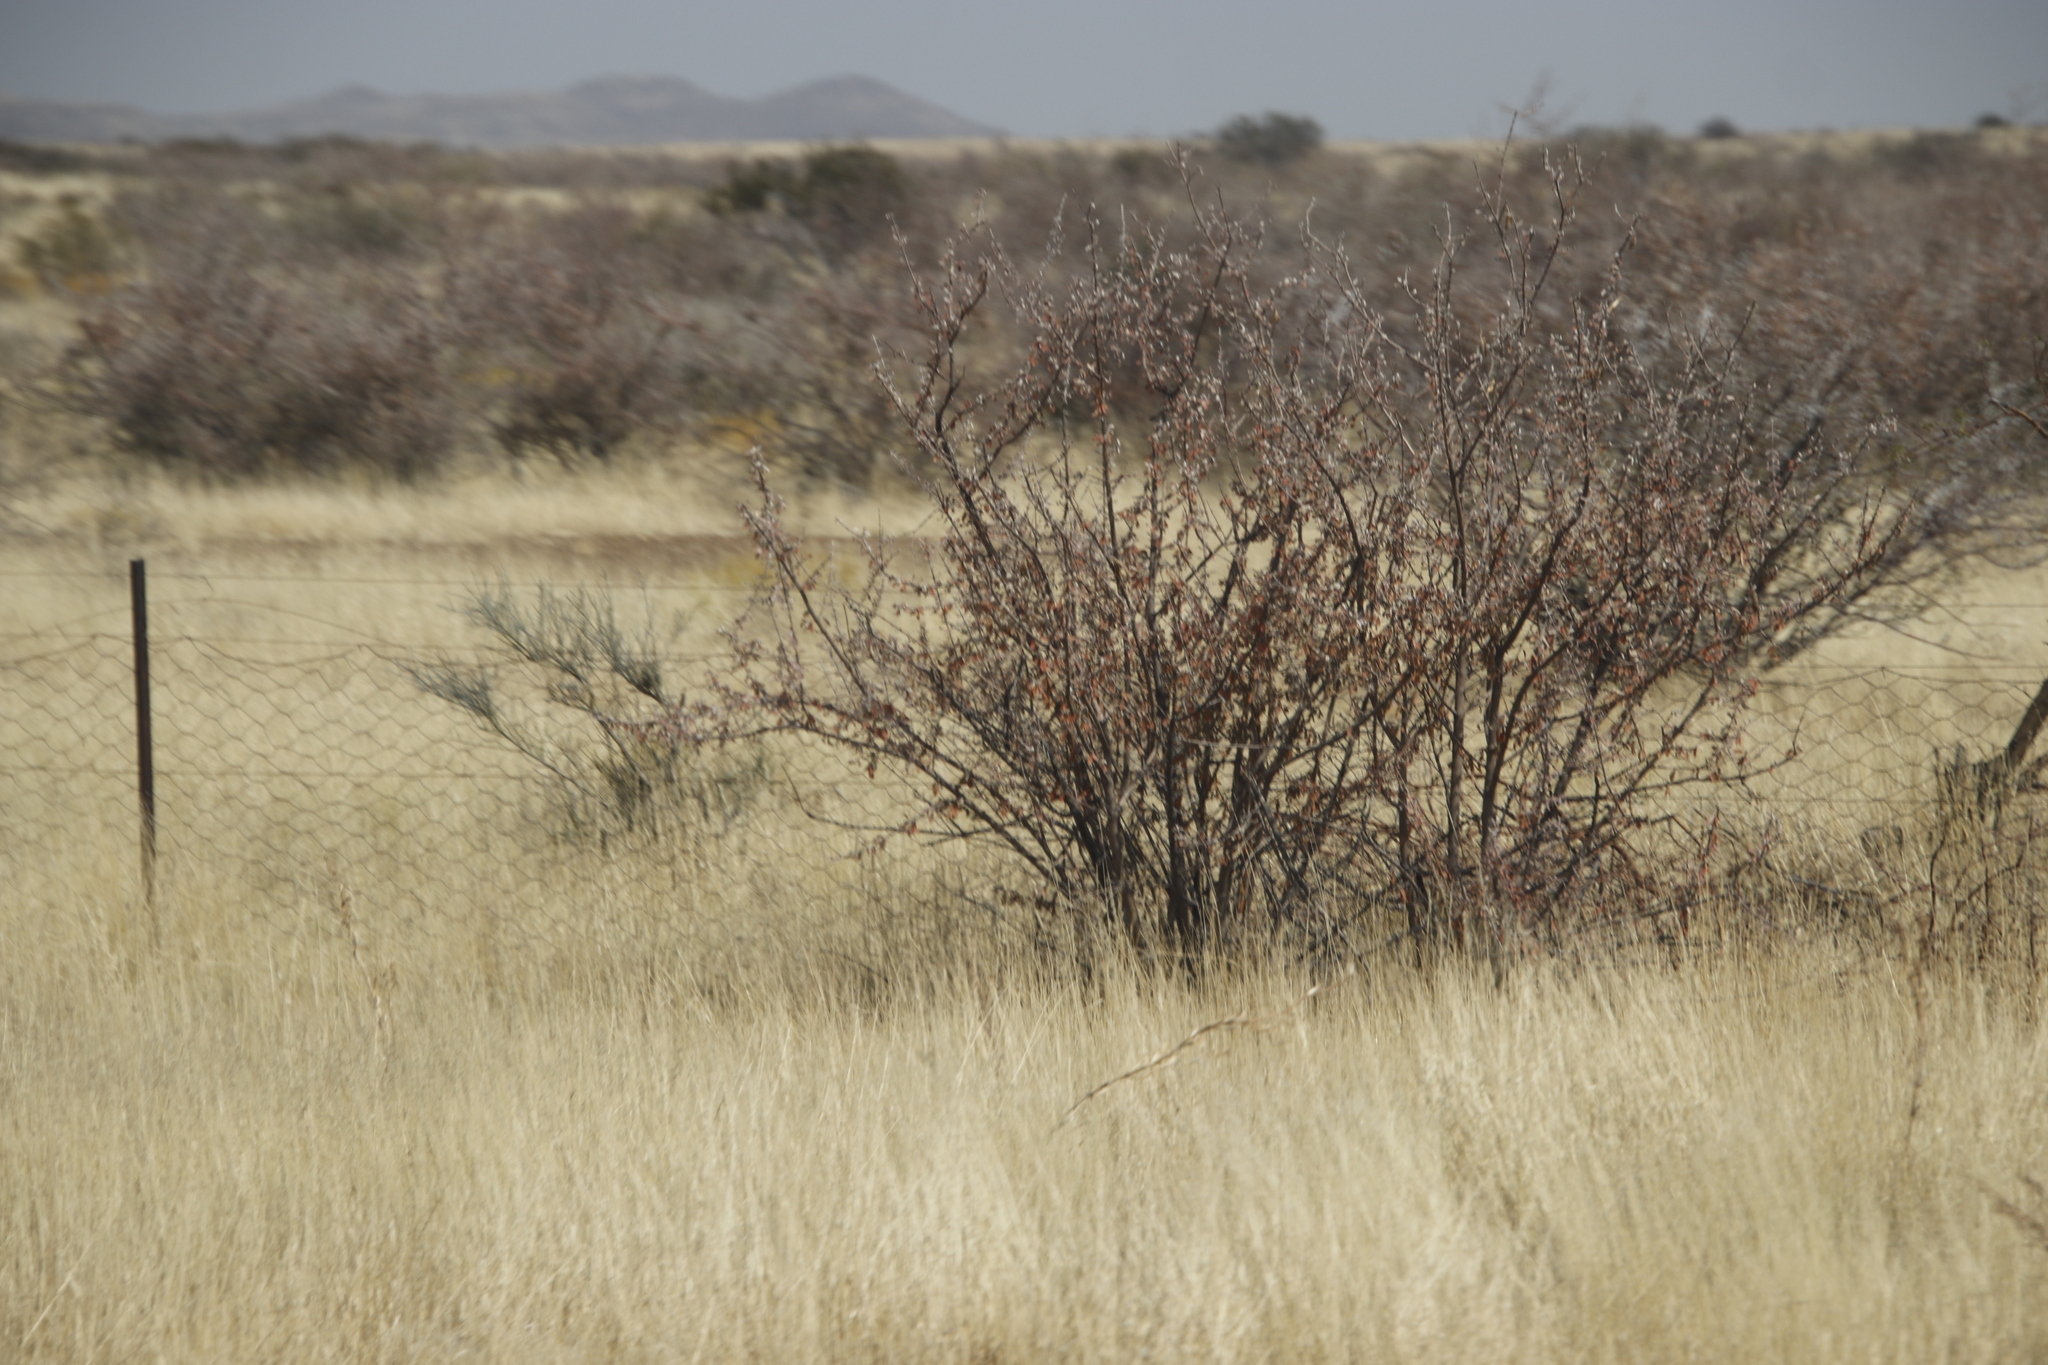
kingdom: Plantae
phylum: Tracheophyta
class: Magnoliopsida
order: Lamiales
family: Bignoniaceae
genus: Catophractes
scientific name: Catophractes alexandri
